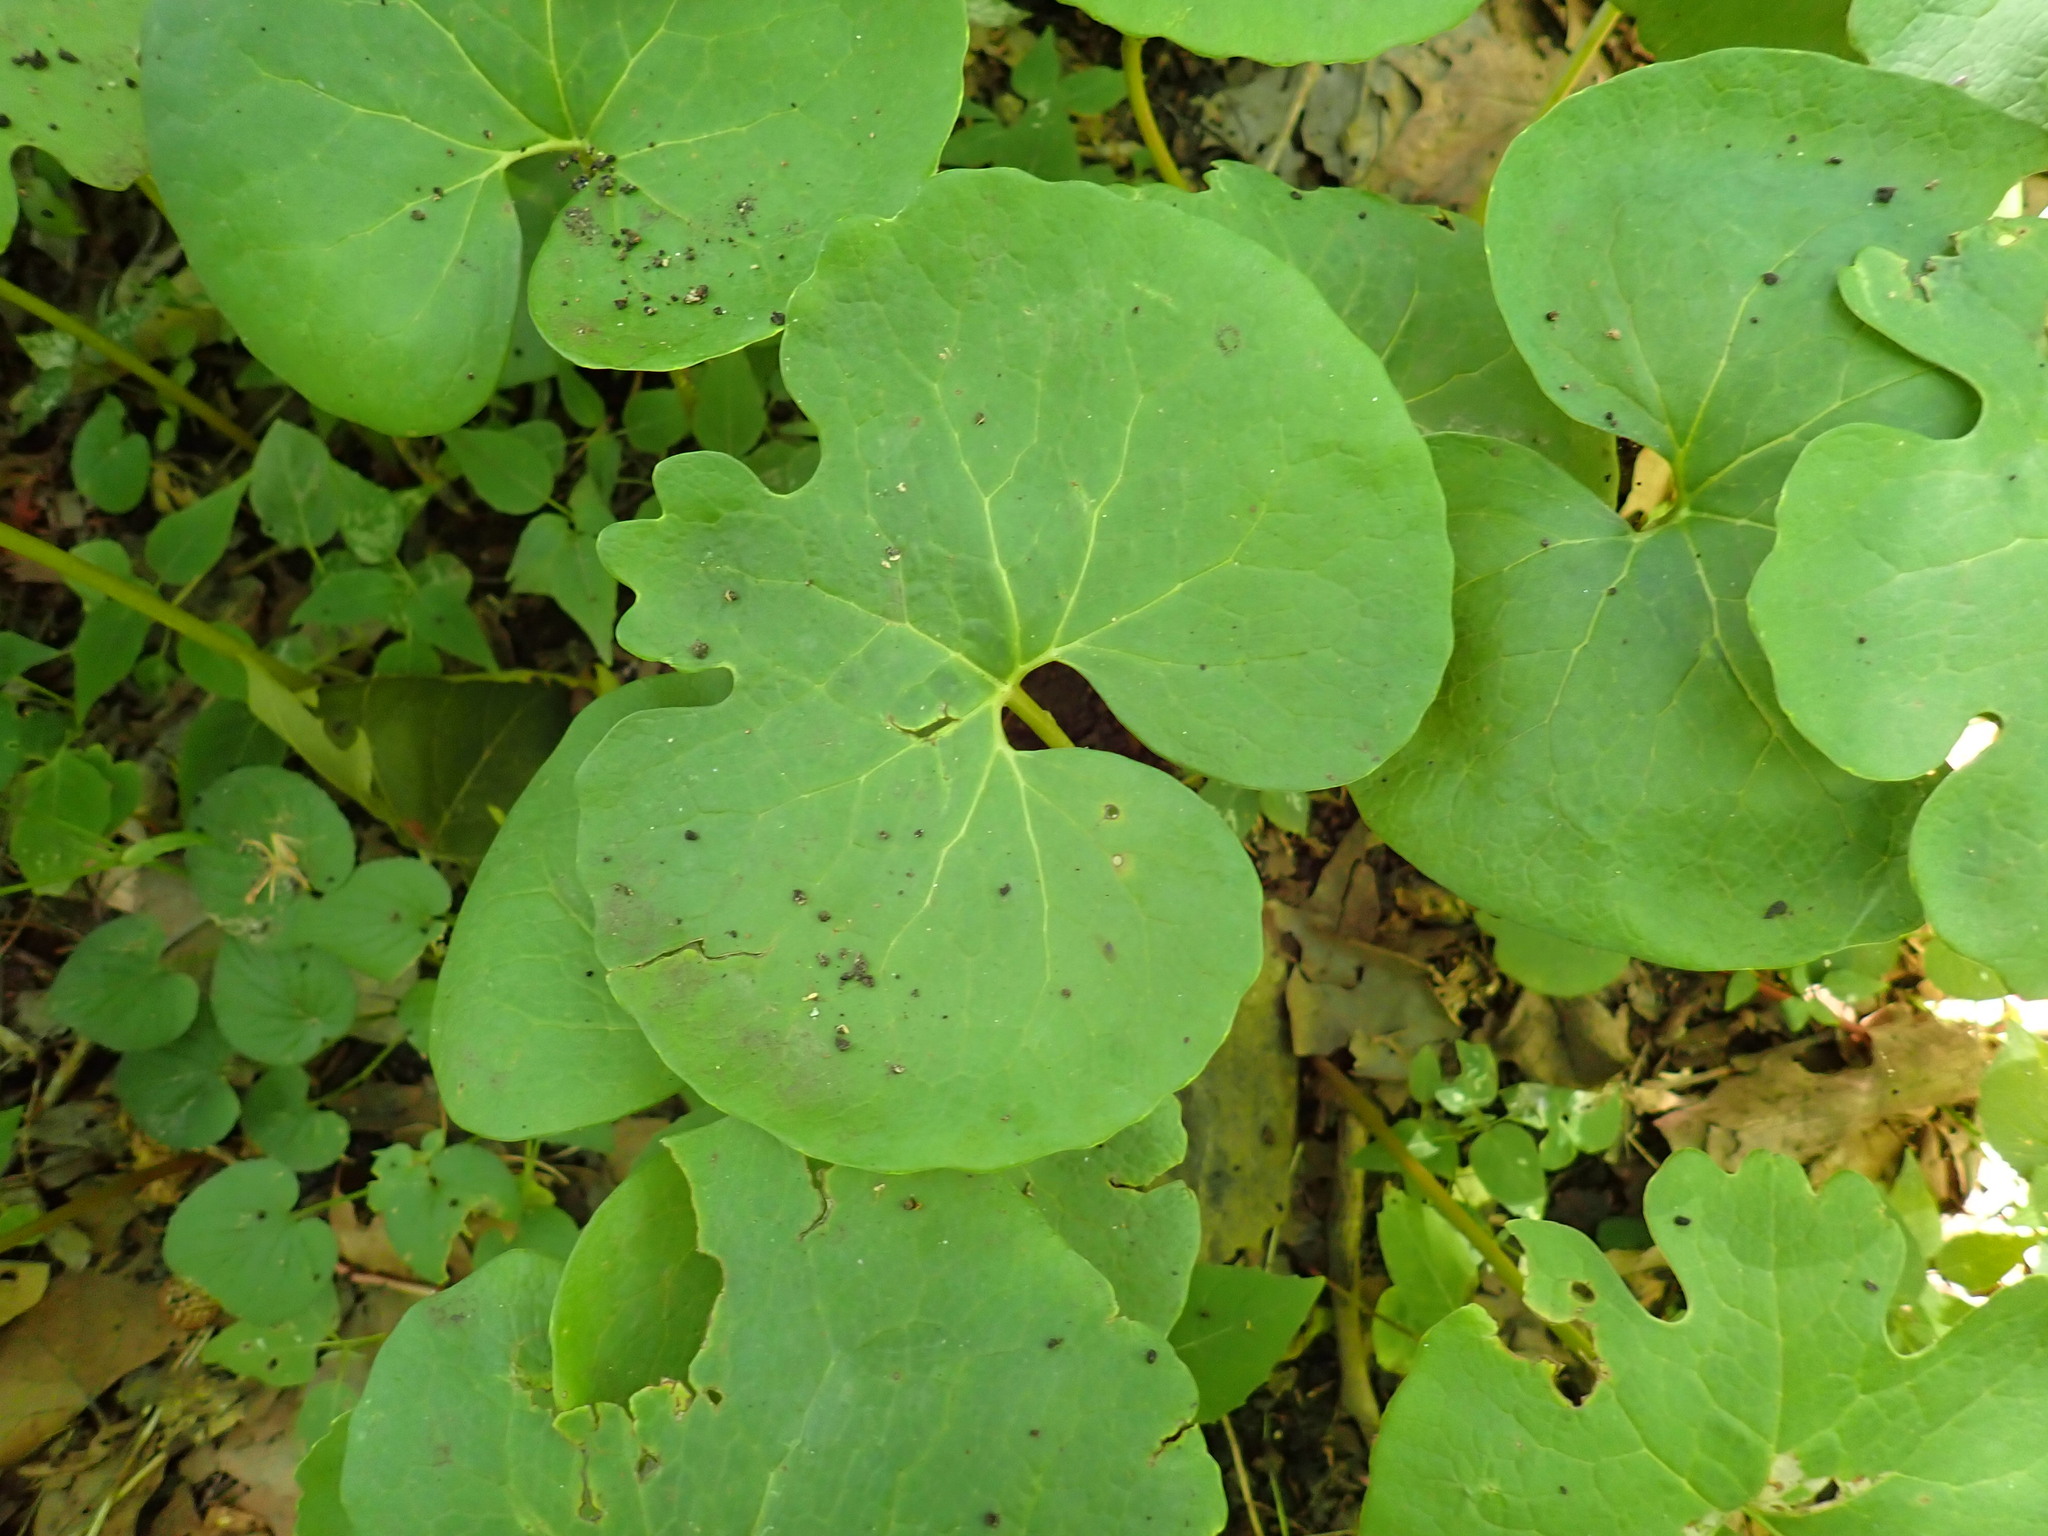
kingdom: Plantae
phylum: Tracheophyta
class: Magnoliopsida
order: Ranunculales
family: Papaveraceae
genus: Sanguinaria
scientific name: Sanguinaria canadensis
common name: Bloodroot
